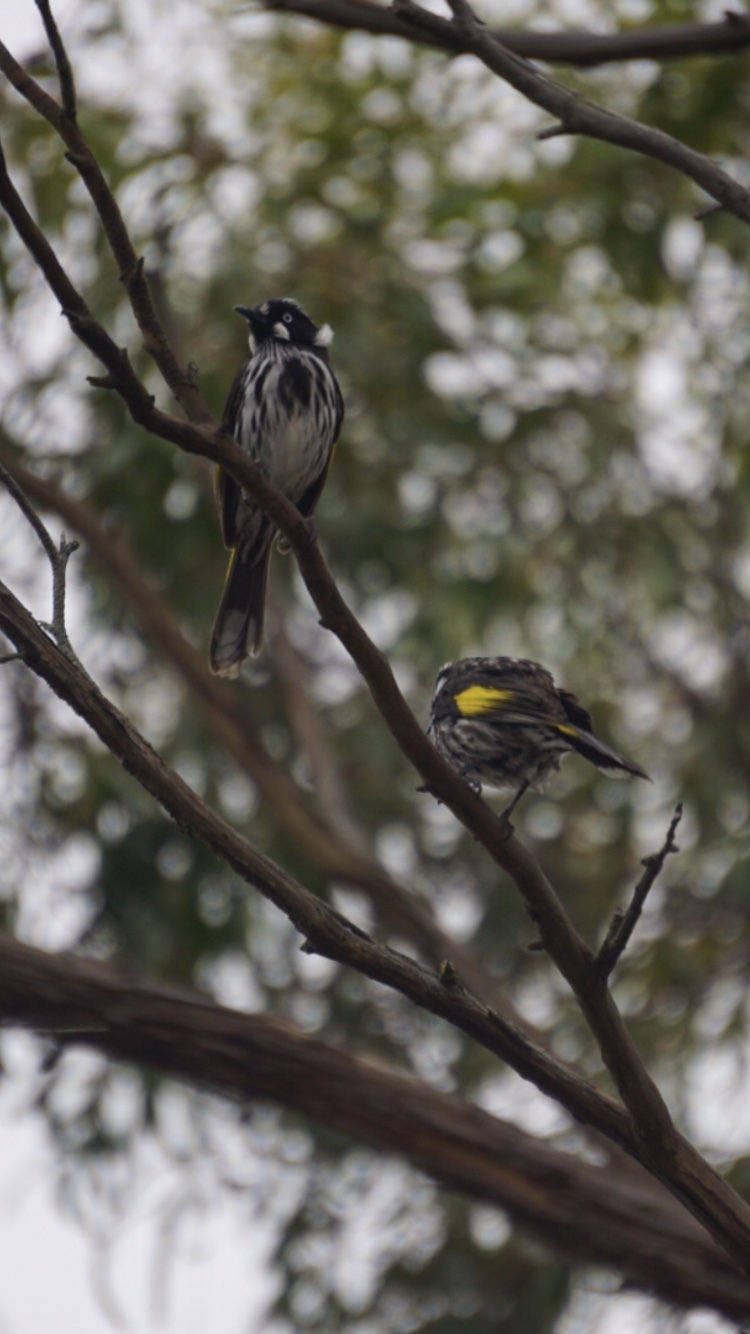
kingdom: Animalia
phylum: Chordata
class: Aves
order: Passeriformes
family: Meliphagidae
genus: Phylidonyris
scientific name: Phylidonyris novaehollandiae
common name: New holland honeyeater
